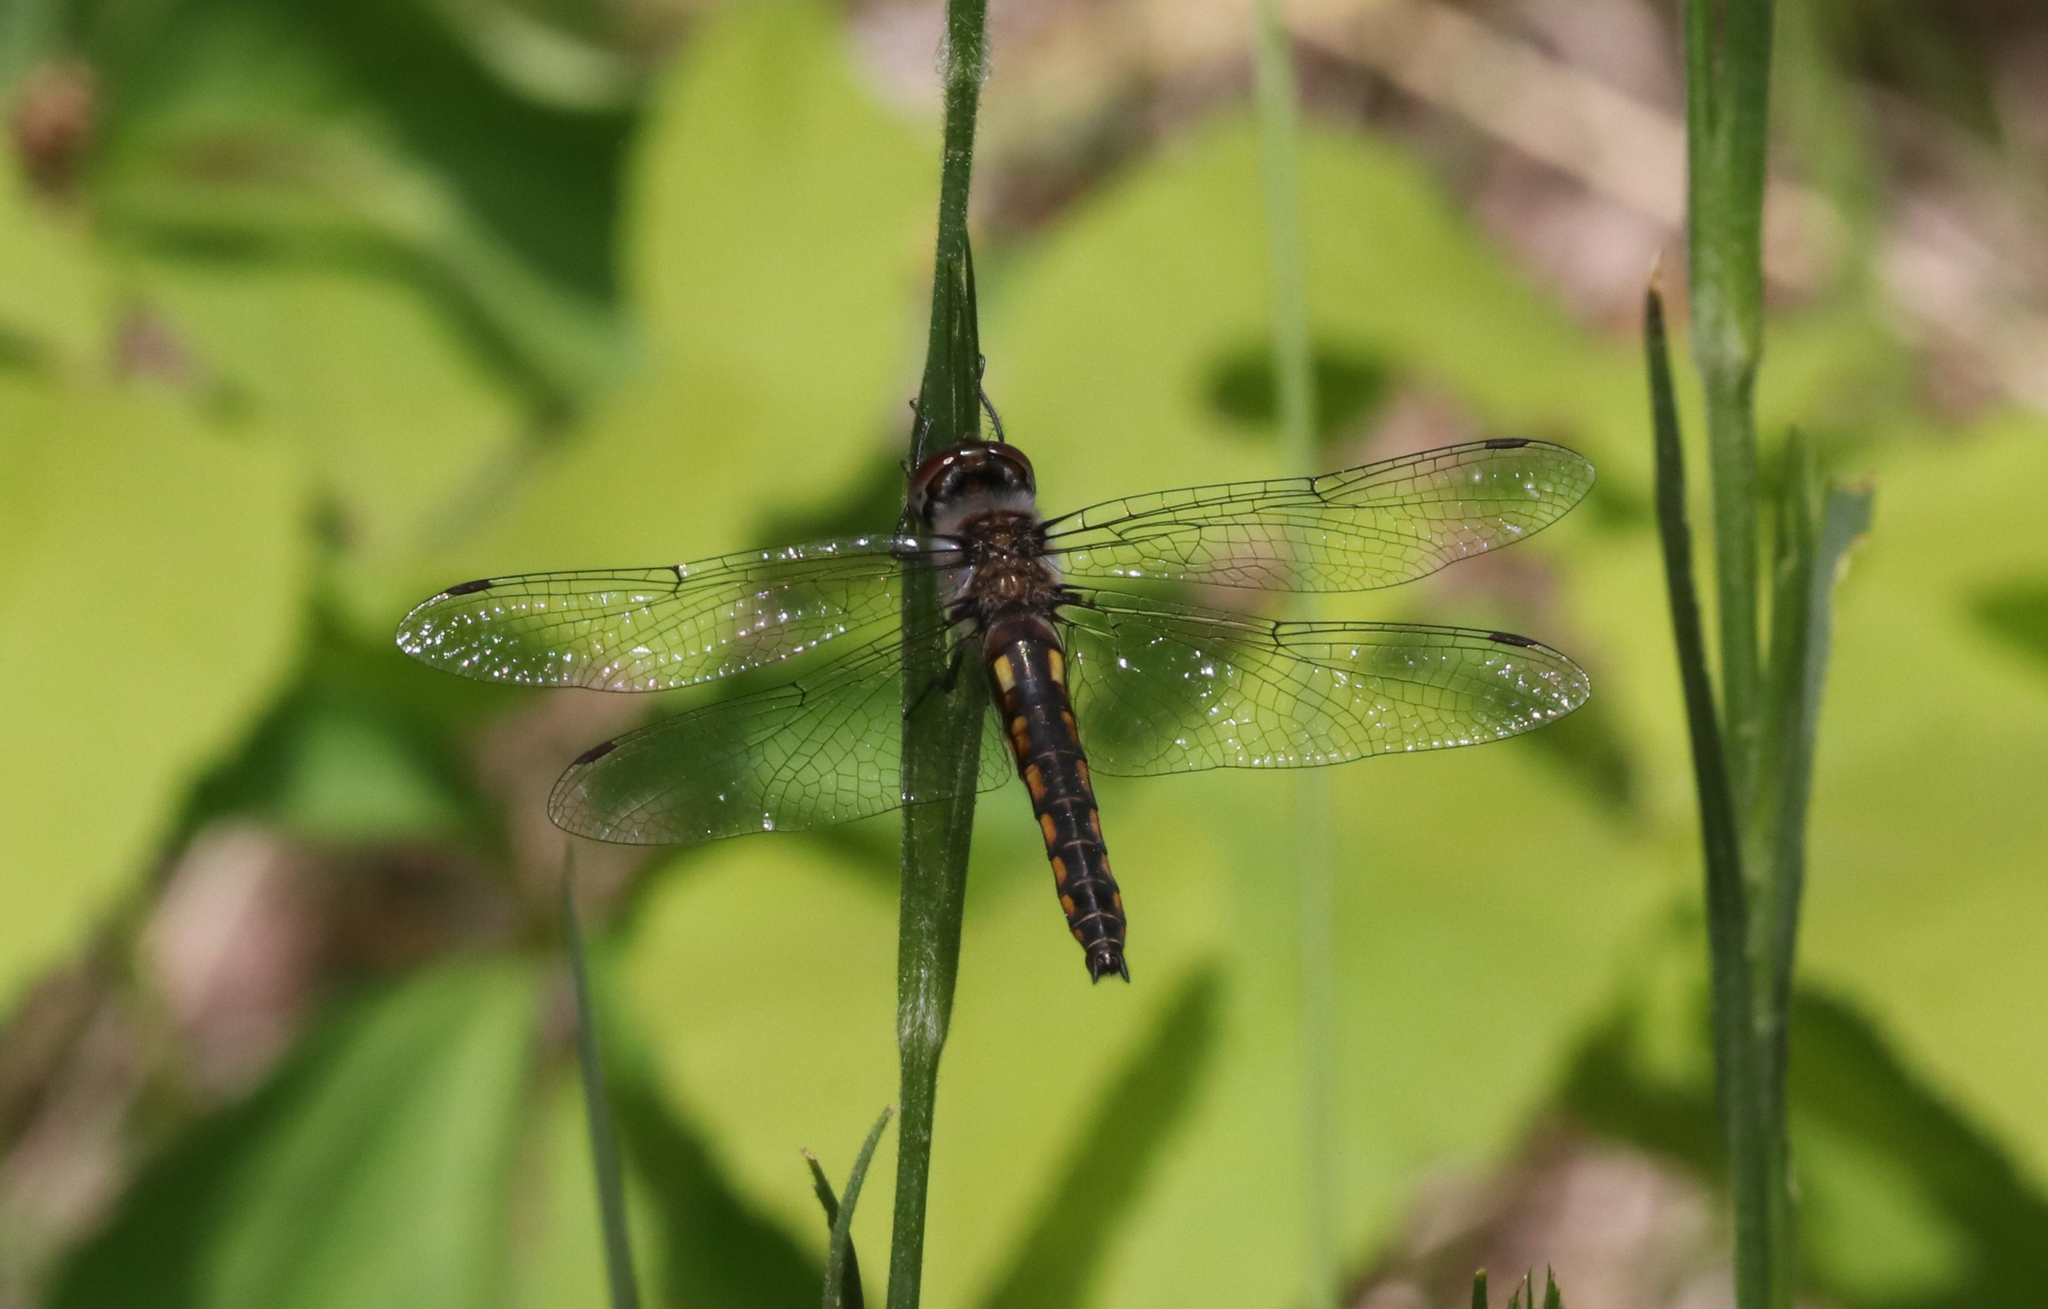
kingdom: Animalia
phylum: Arthropoda
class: Insecta
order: Odonata
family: Corduliidae
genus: Epitheca
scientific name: Epitheca cynosura
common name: Common baskettail
